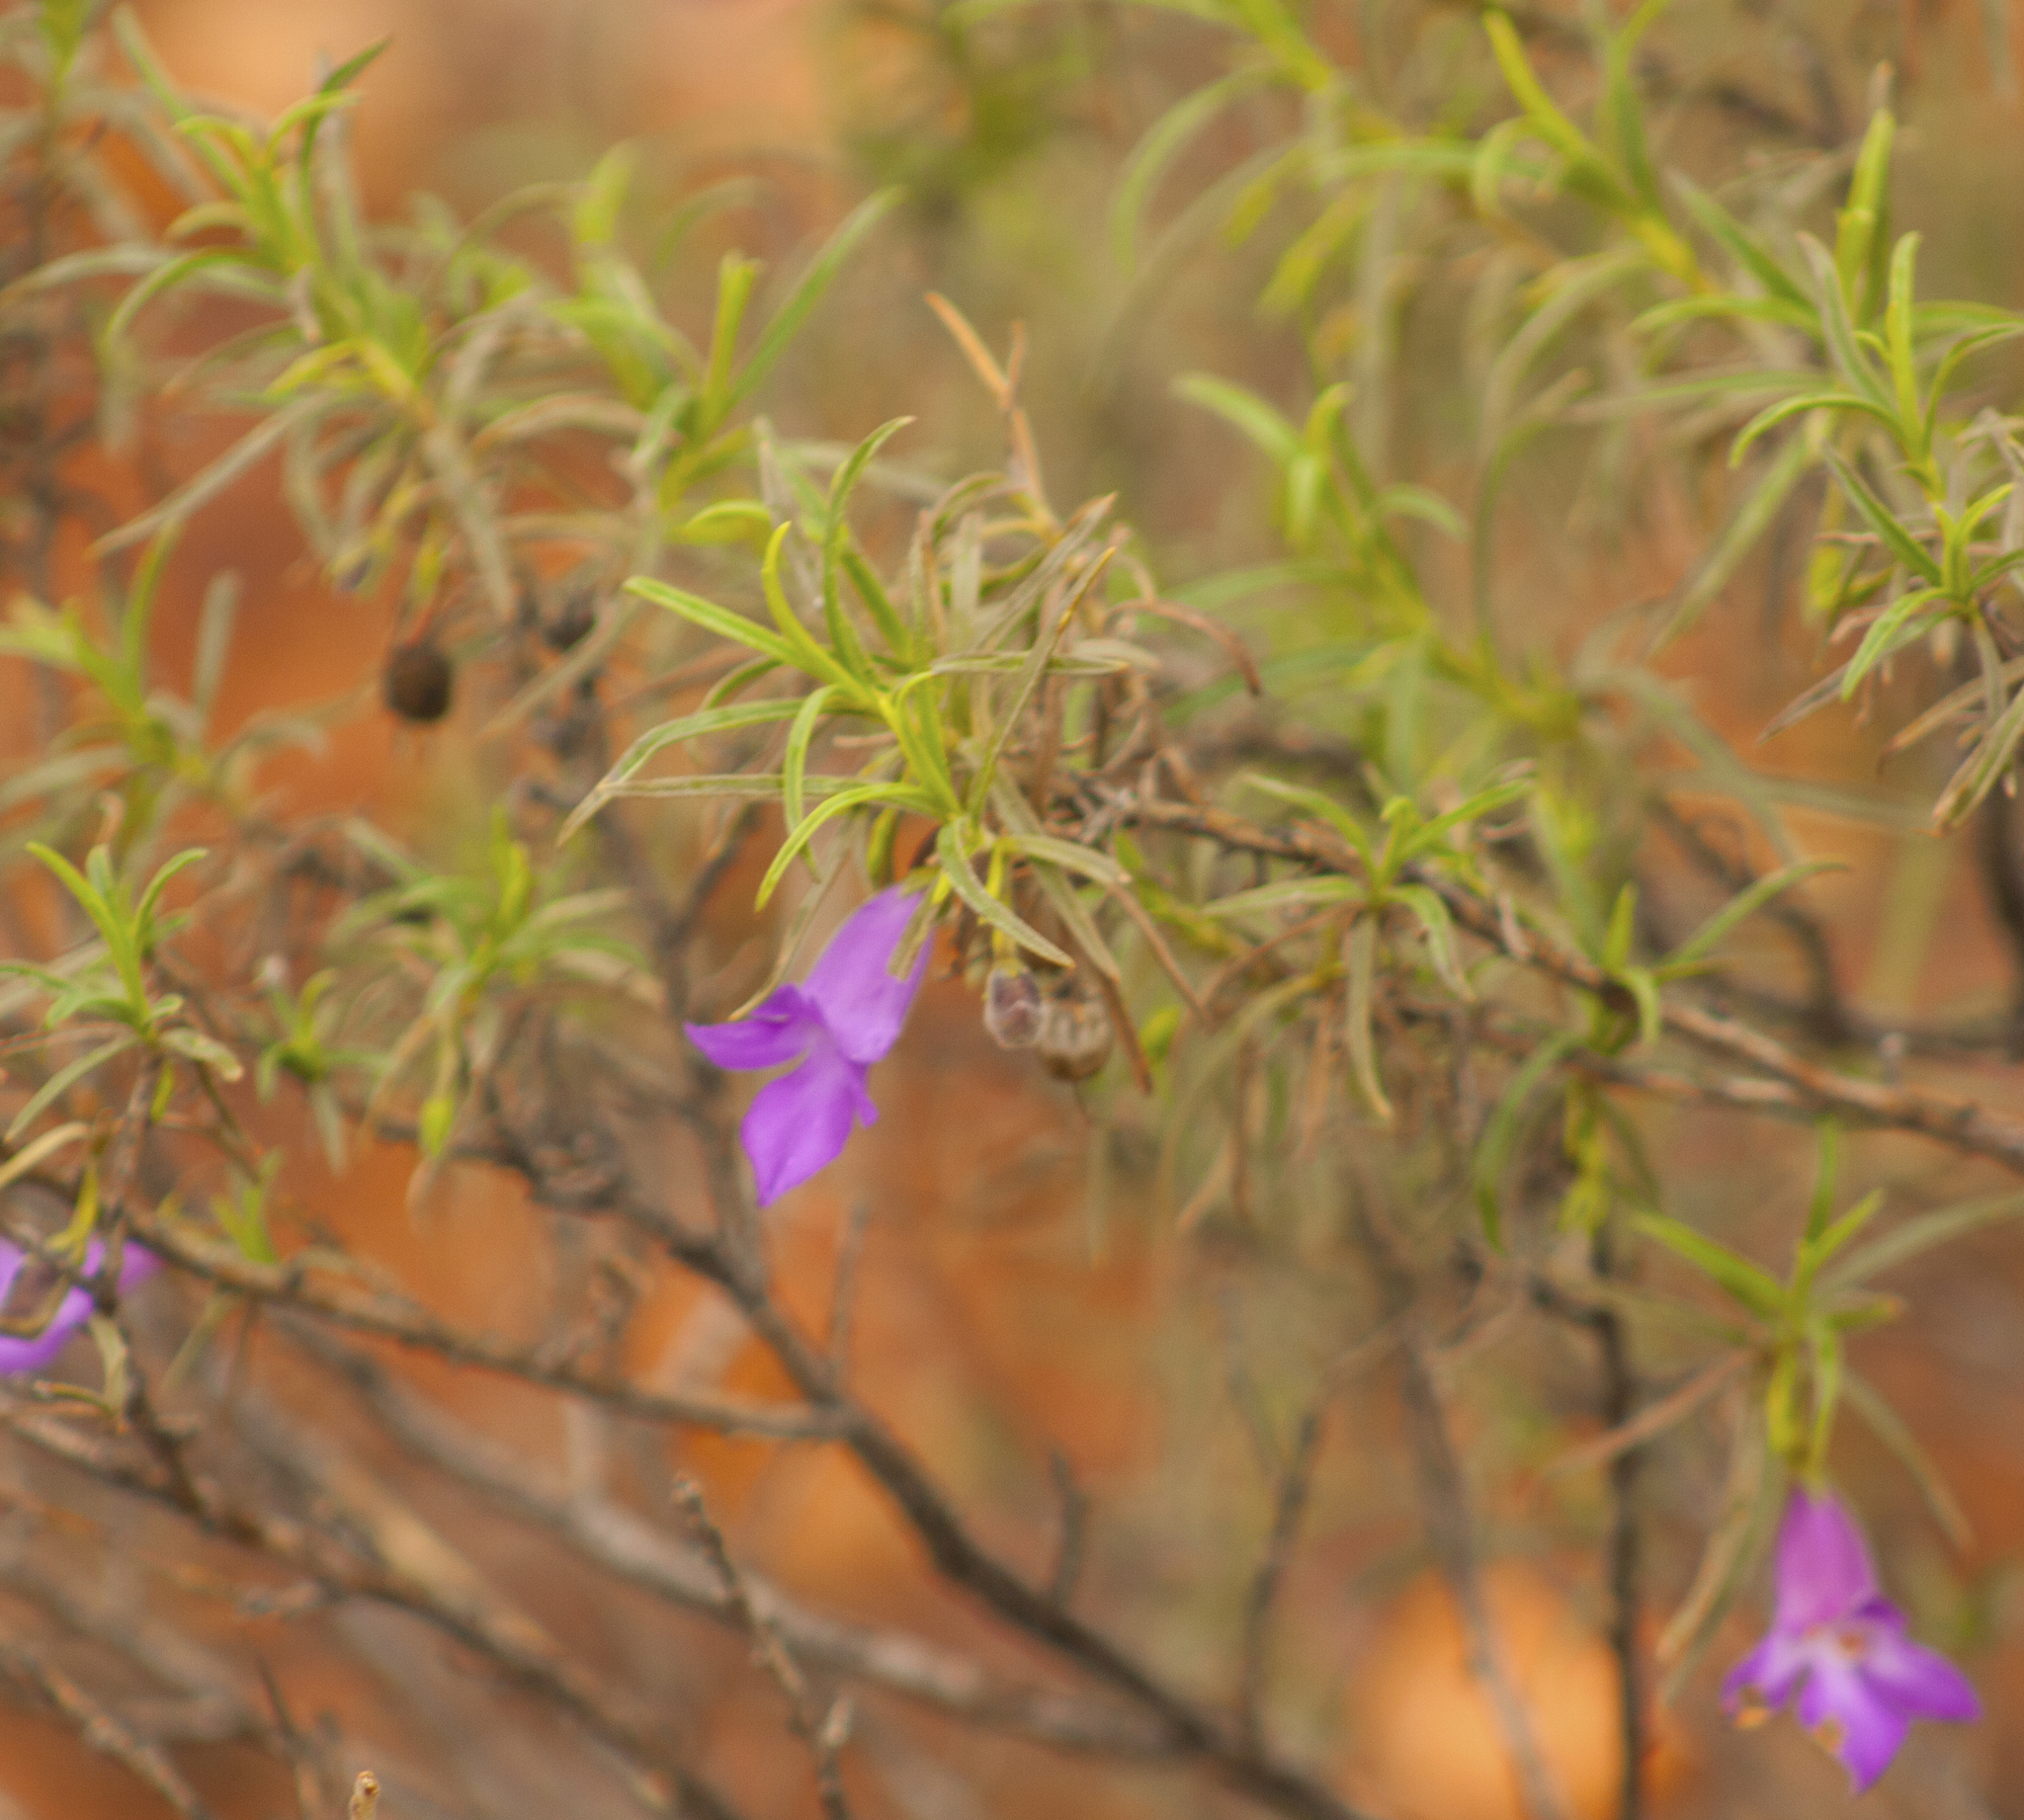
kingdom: Plantae
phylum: Tracheophyta
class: Magnoliopsida
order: Lamiales
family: Scrophulariaceae
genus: Eremophila
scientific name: Eremophila gilesii
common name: Desert fuchsia
